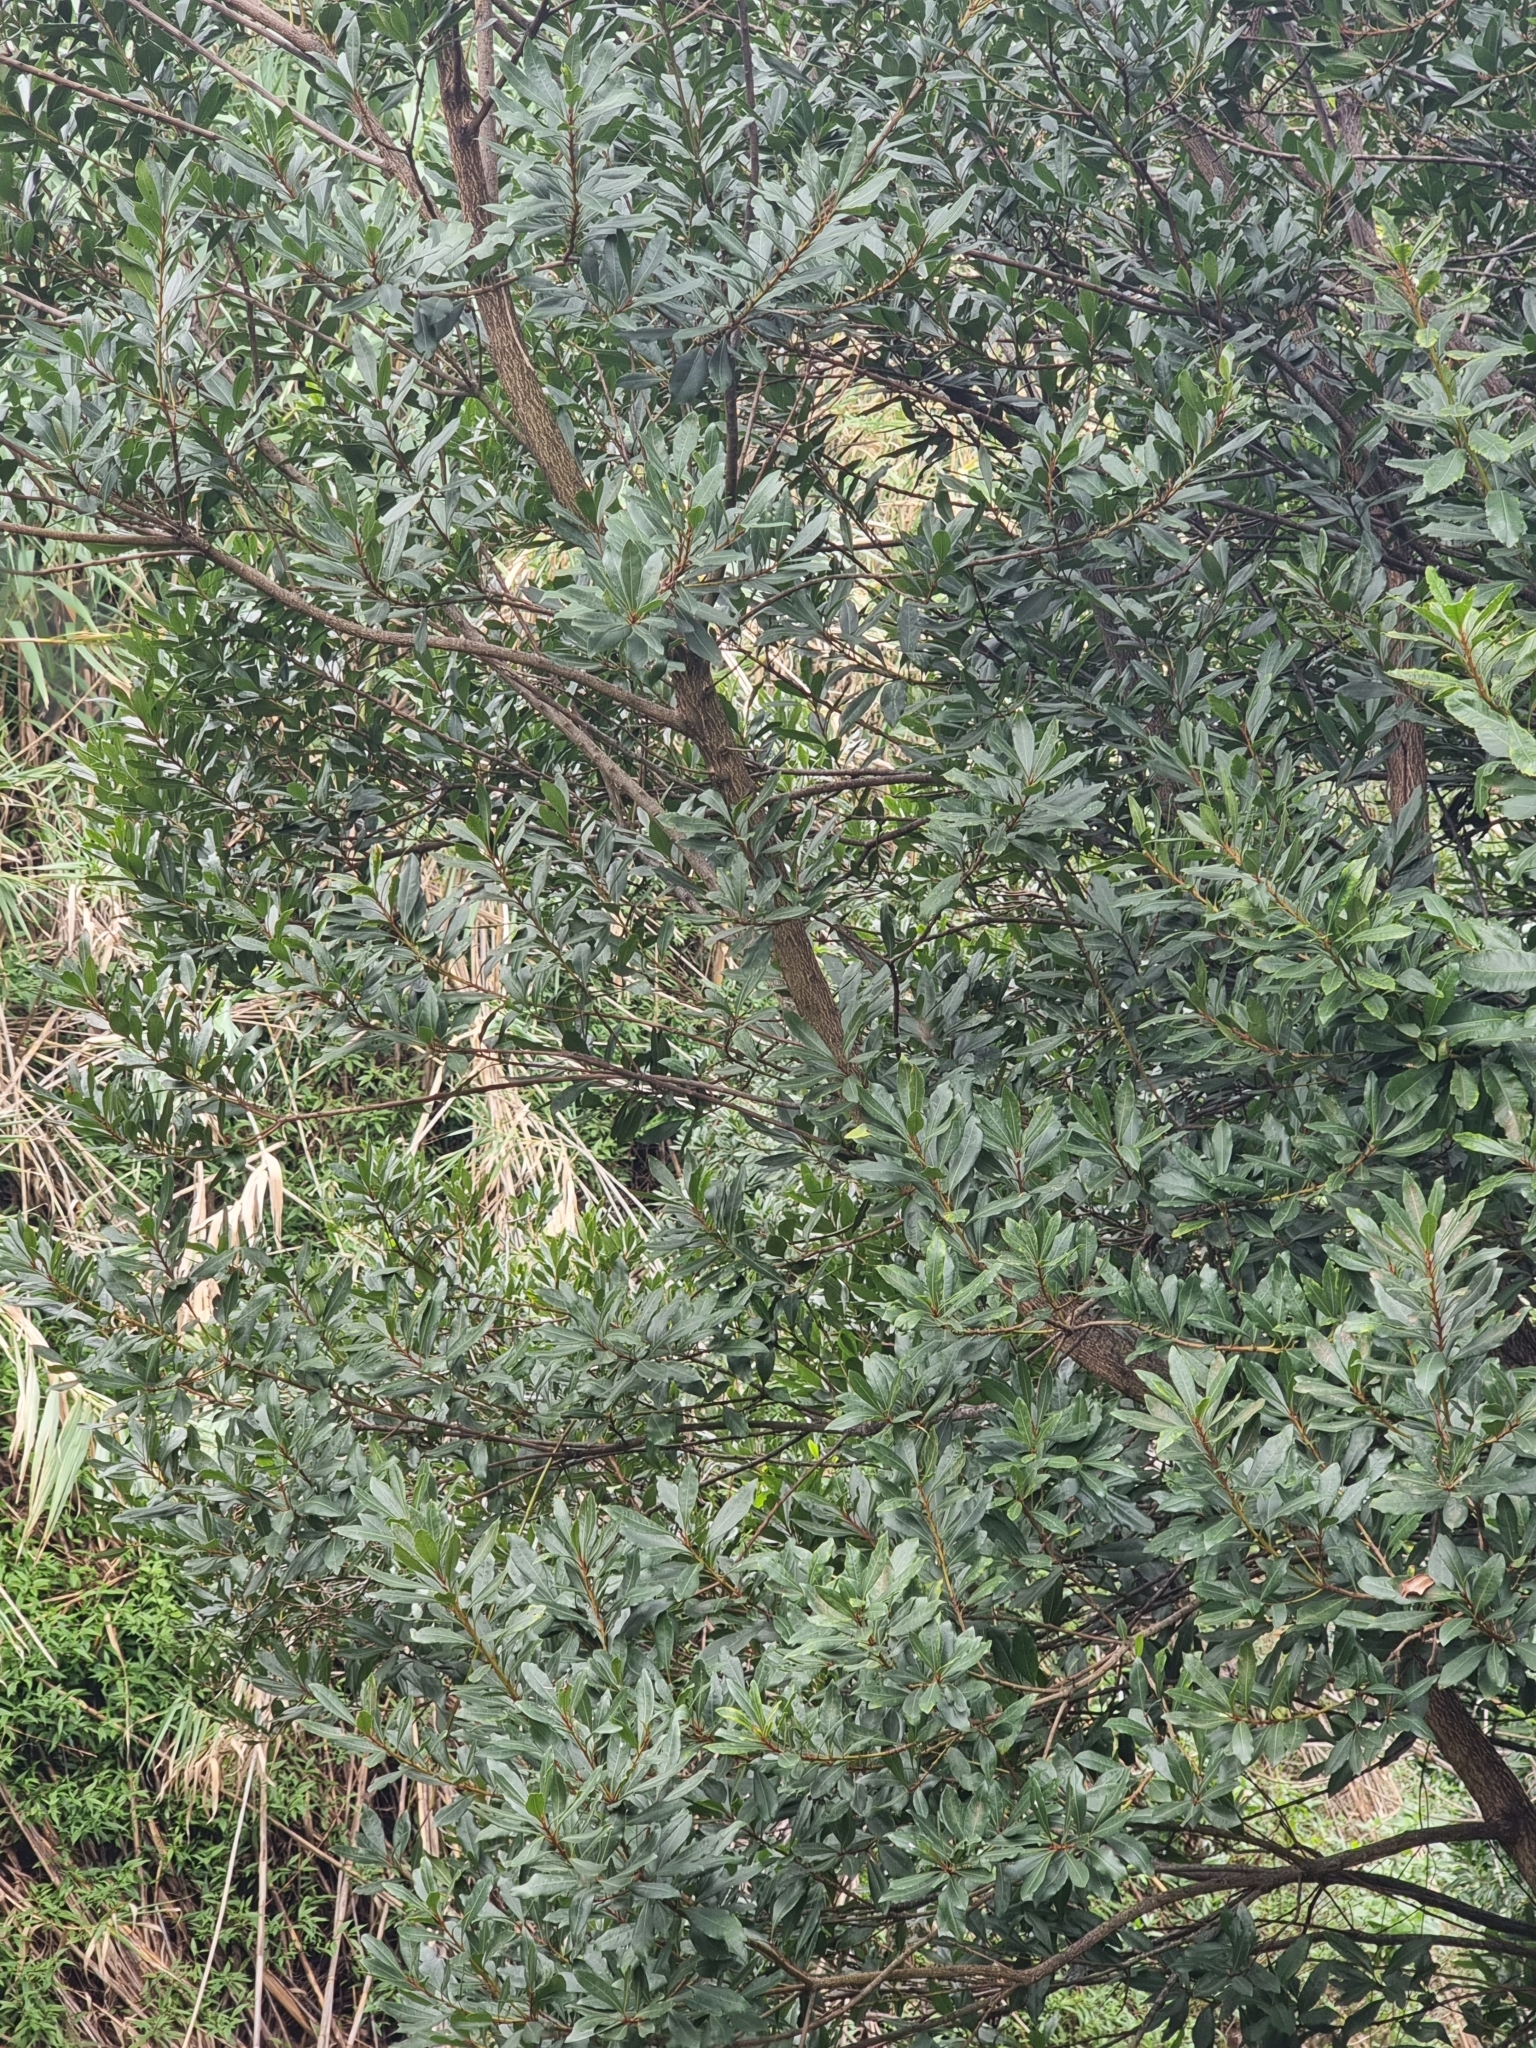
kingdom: Plantae
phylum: Tracheophyta
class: Magnoliopsida
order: Fagales
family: Myricaceae
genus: Morella
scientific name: Morella faya
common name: Firetree
